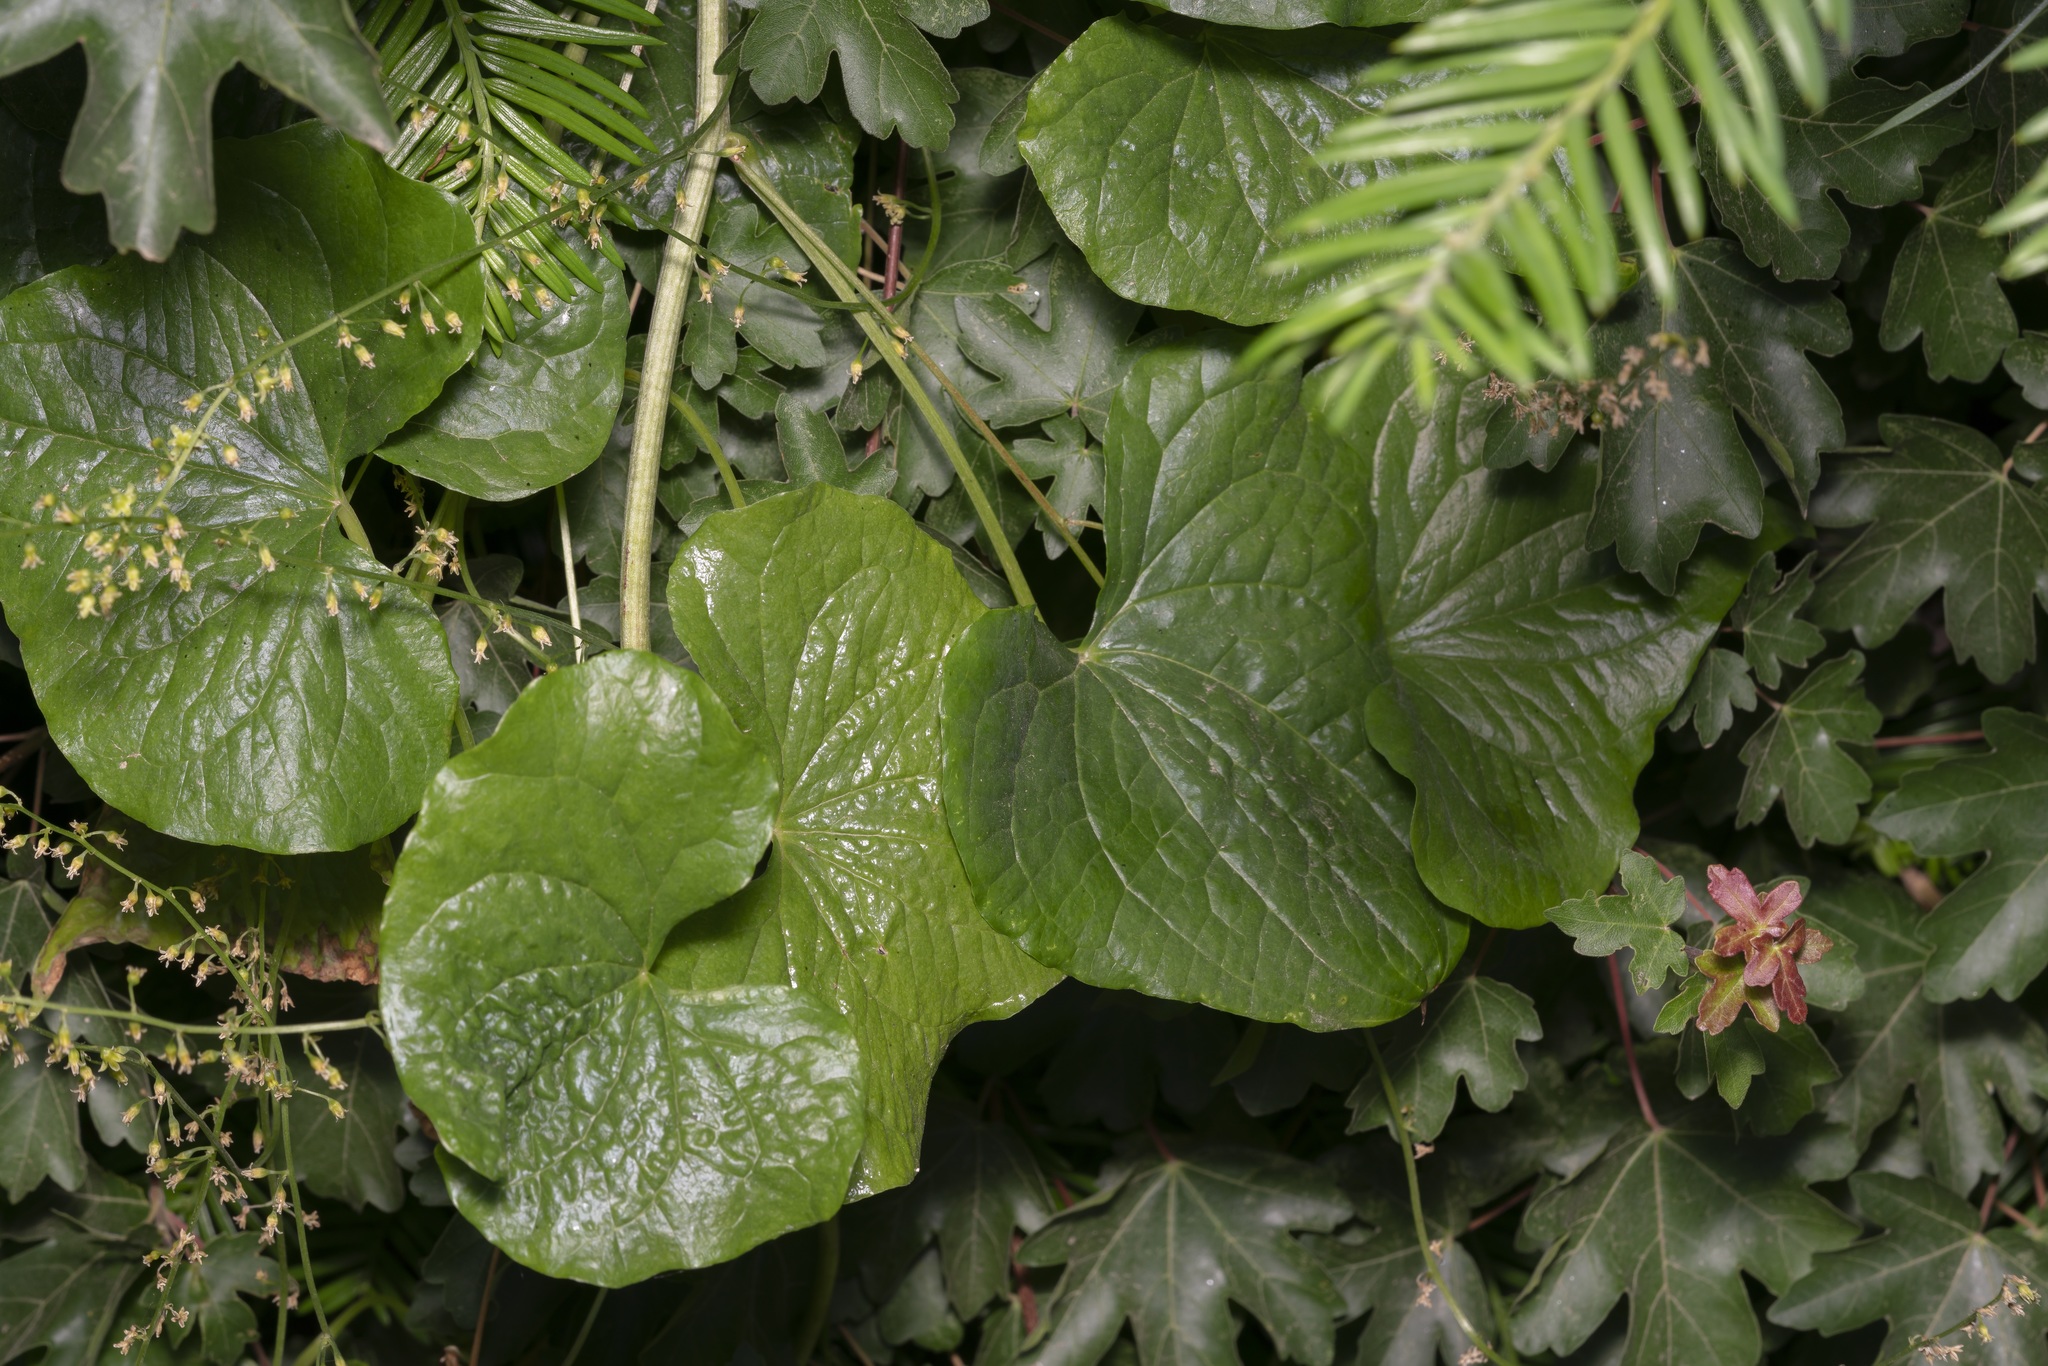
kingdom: Plantae
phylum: Tracheophyta
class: Liliopsida
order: Dioscoreales
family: Dioscoreaceae
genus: Dioscorea
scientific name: Dioscorea communis
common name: Black-bindweed
